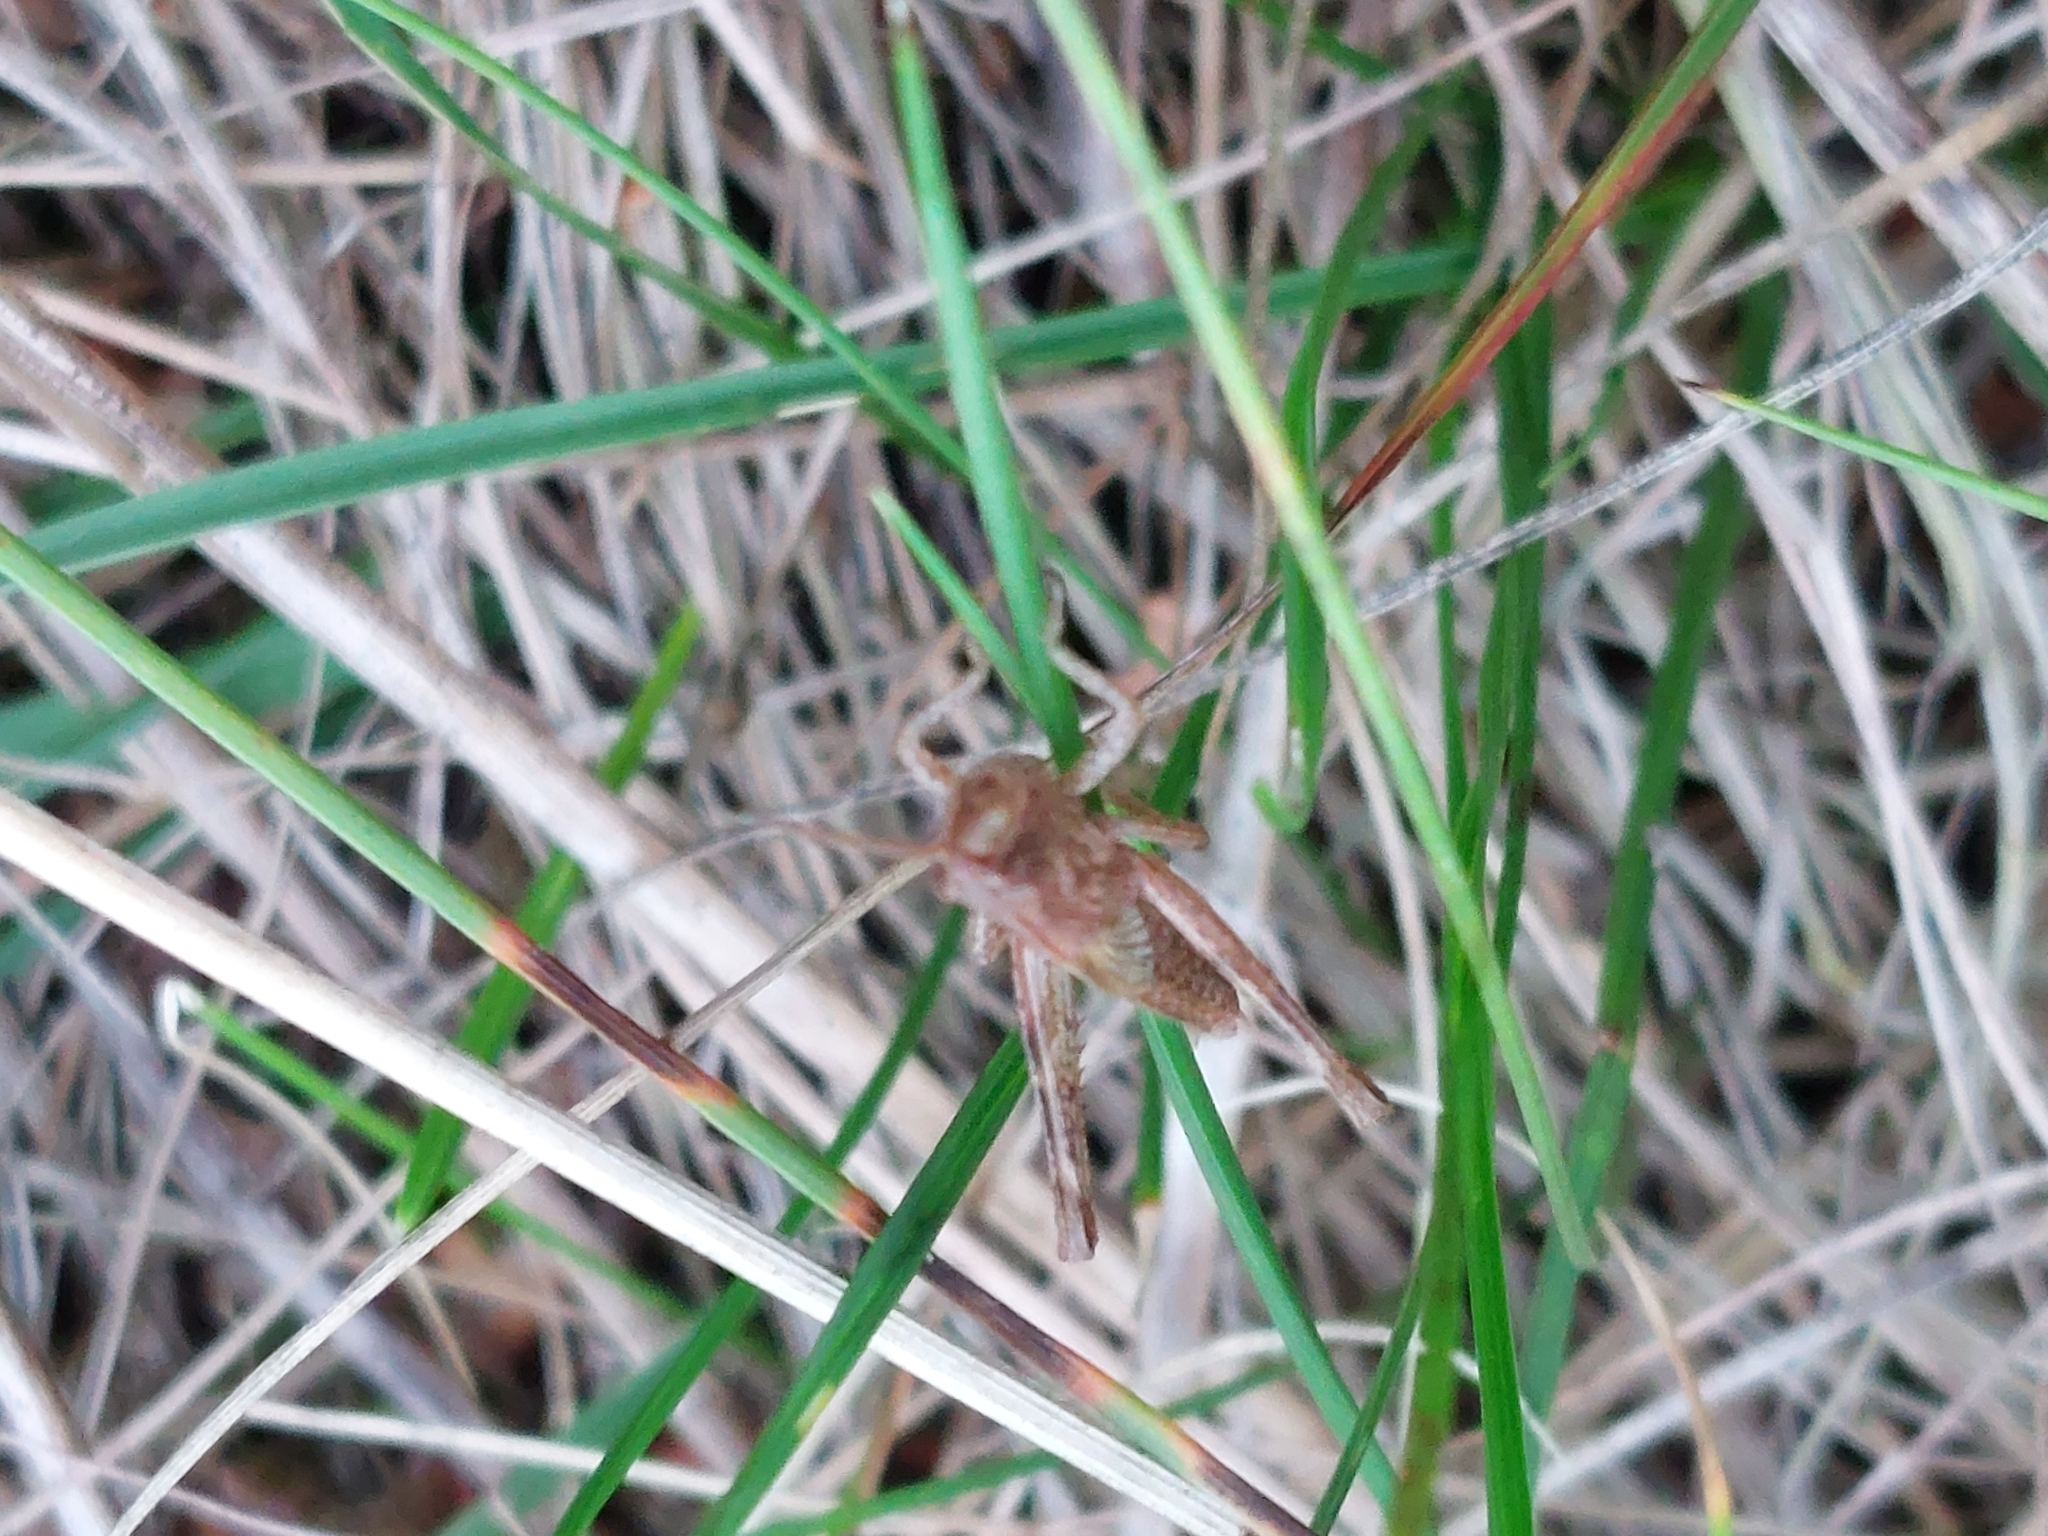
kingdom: Animalia
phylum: Arthropoda
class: Insecta
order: Orthoptera
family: Acrididae
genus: Gomphocerippus
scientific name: Gomphocerippus rufus
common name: Rufous grasshopper
